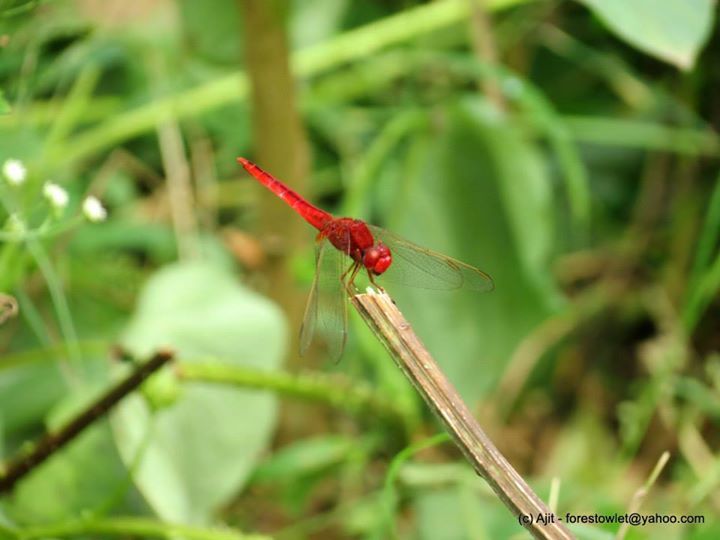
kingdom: Animalia
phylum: Arthropoda
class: Insecta
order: Odonata
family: Libellulidae
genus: Crocothemis
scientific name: Crocothemis servilia
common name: Scarlet skimmer
